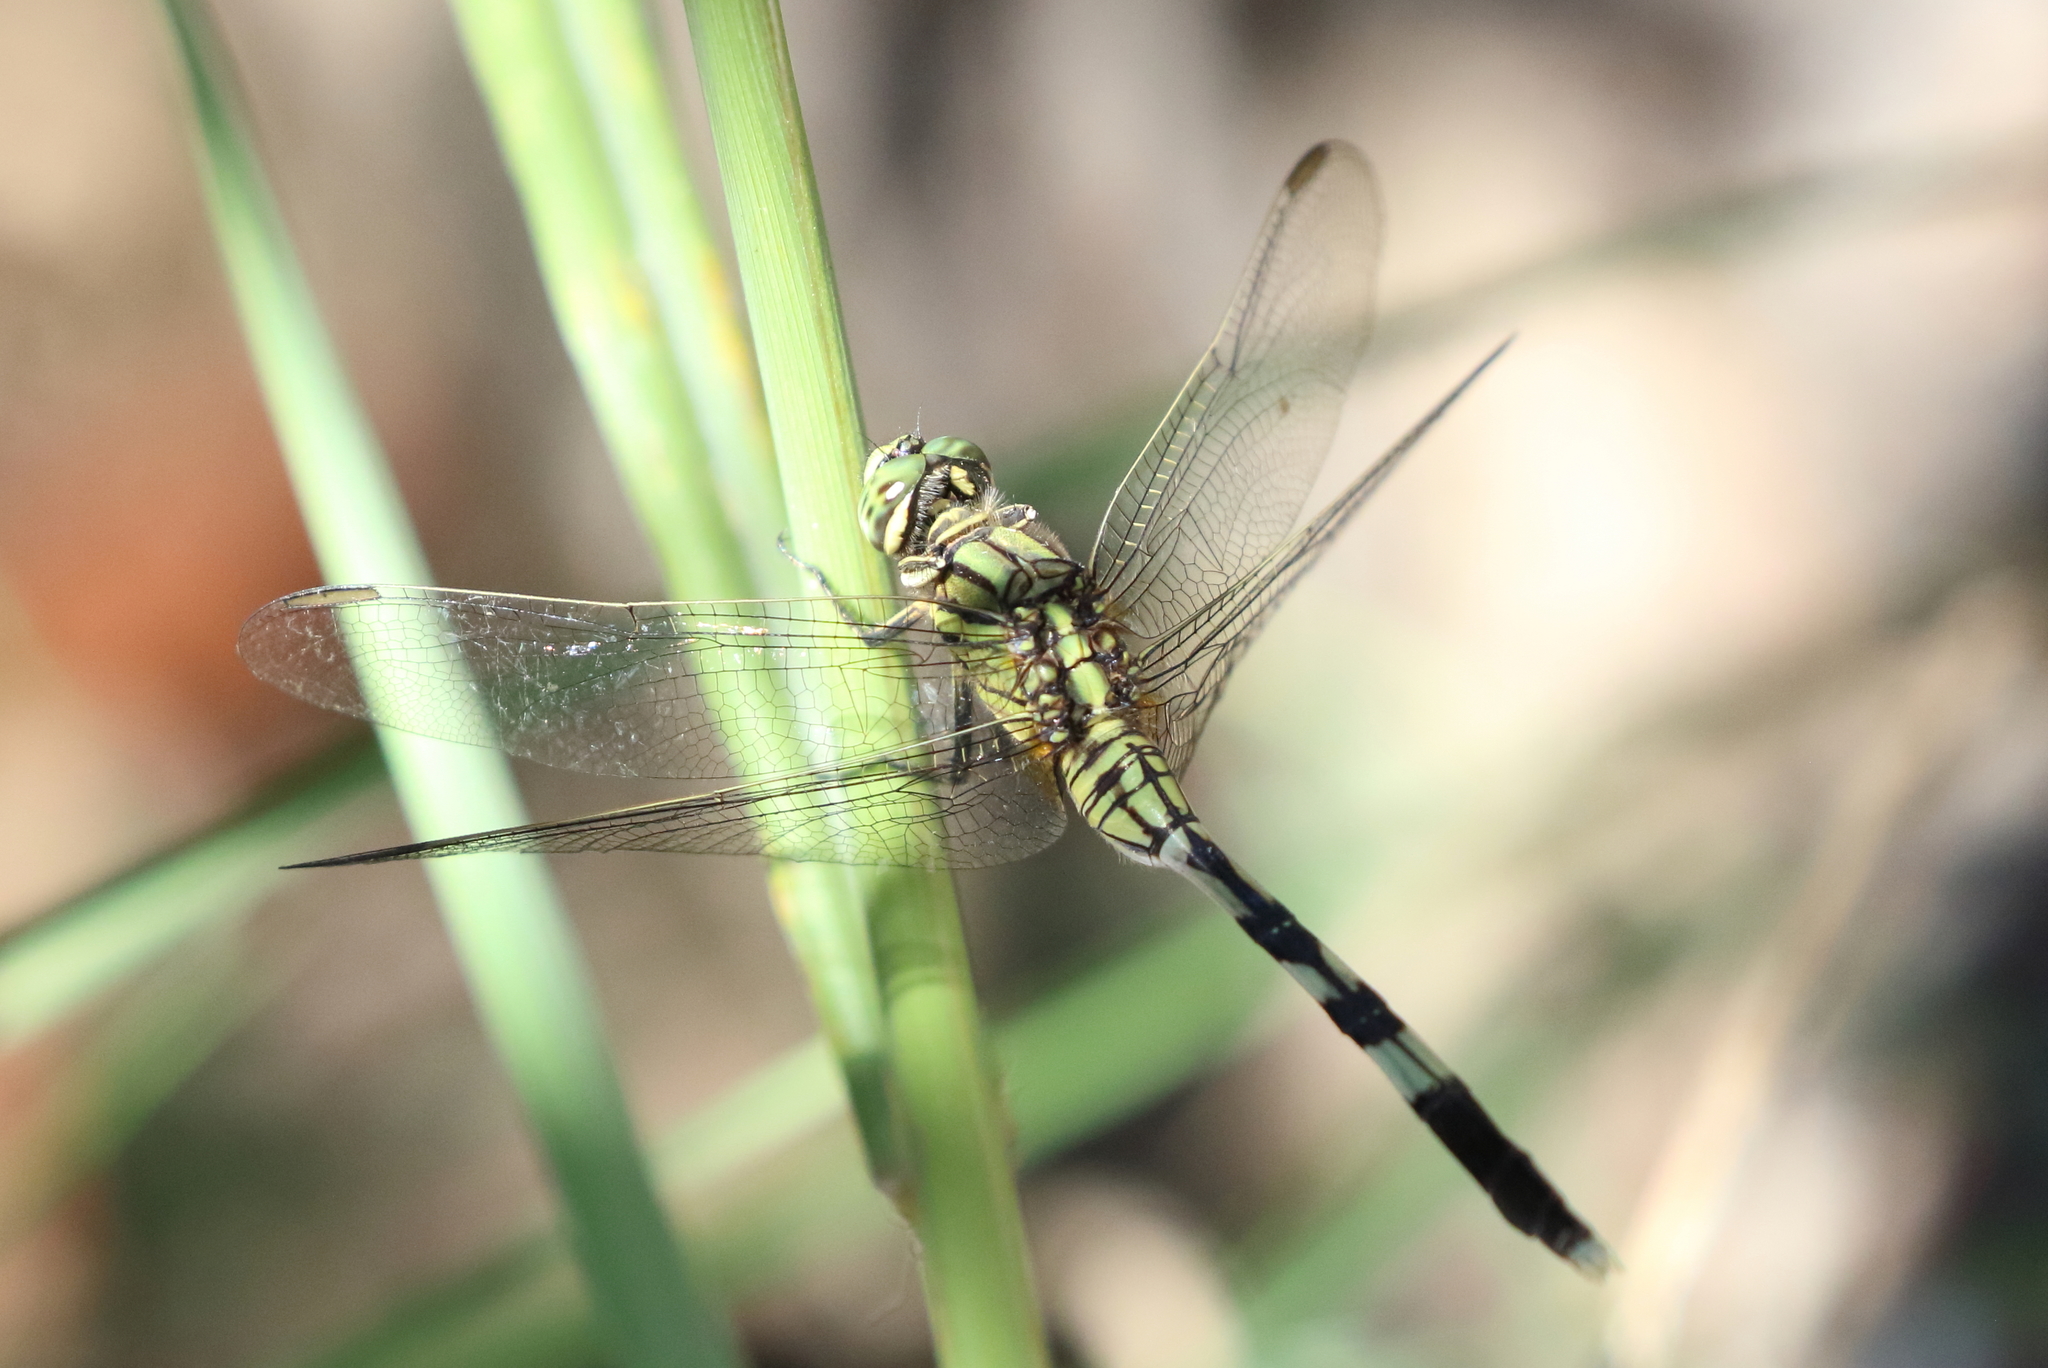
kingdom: Animalia
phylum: Arthropoda
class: Insecta
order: Odonata
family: Libellulidae
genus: Orthetrum
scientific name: Orthetrum sabina
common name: Slender skimmer
